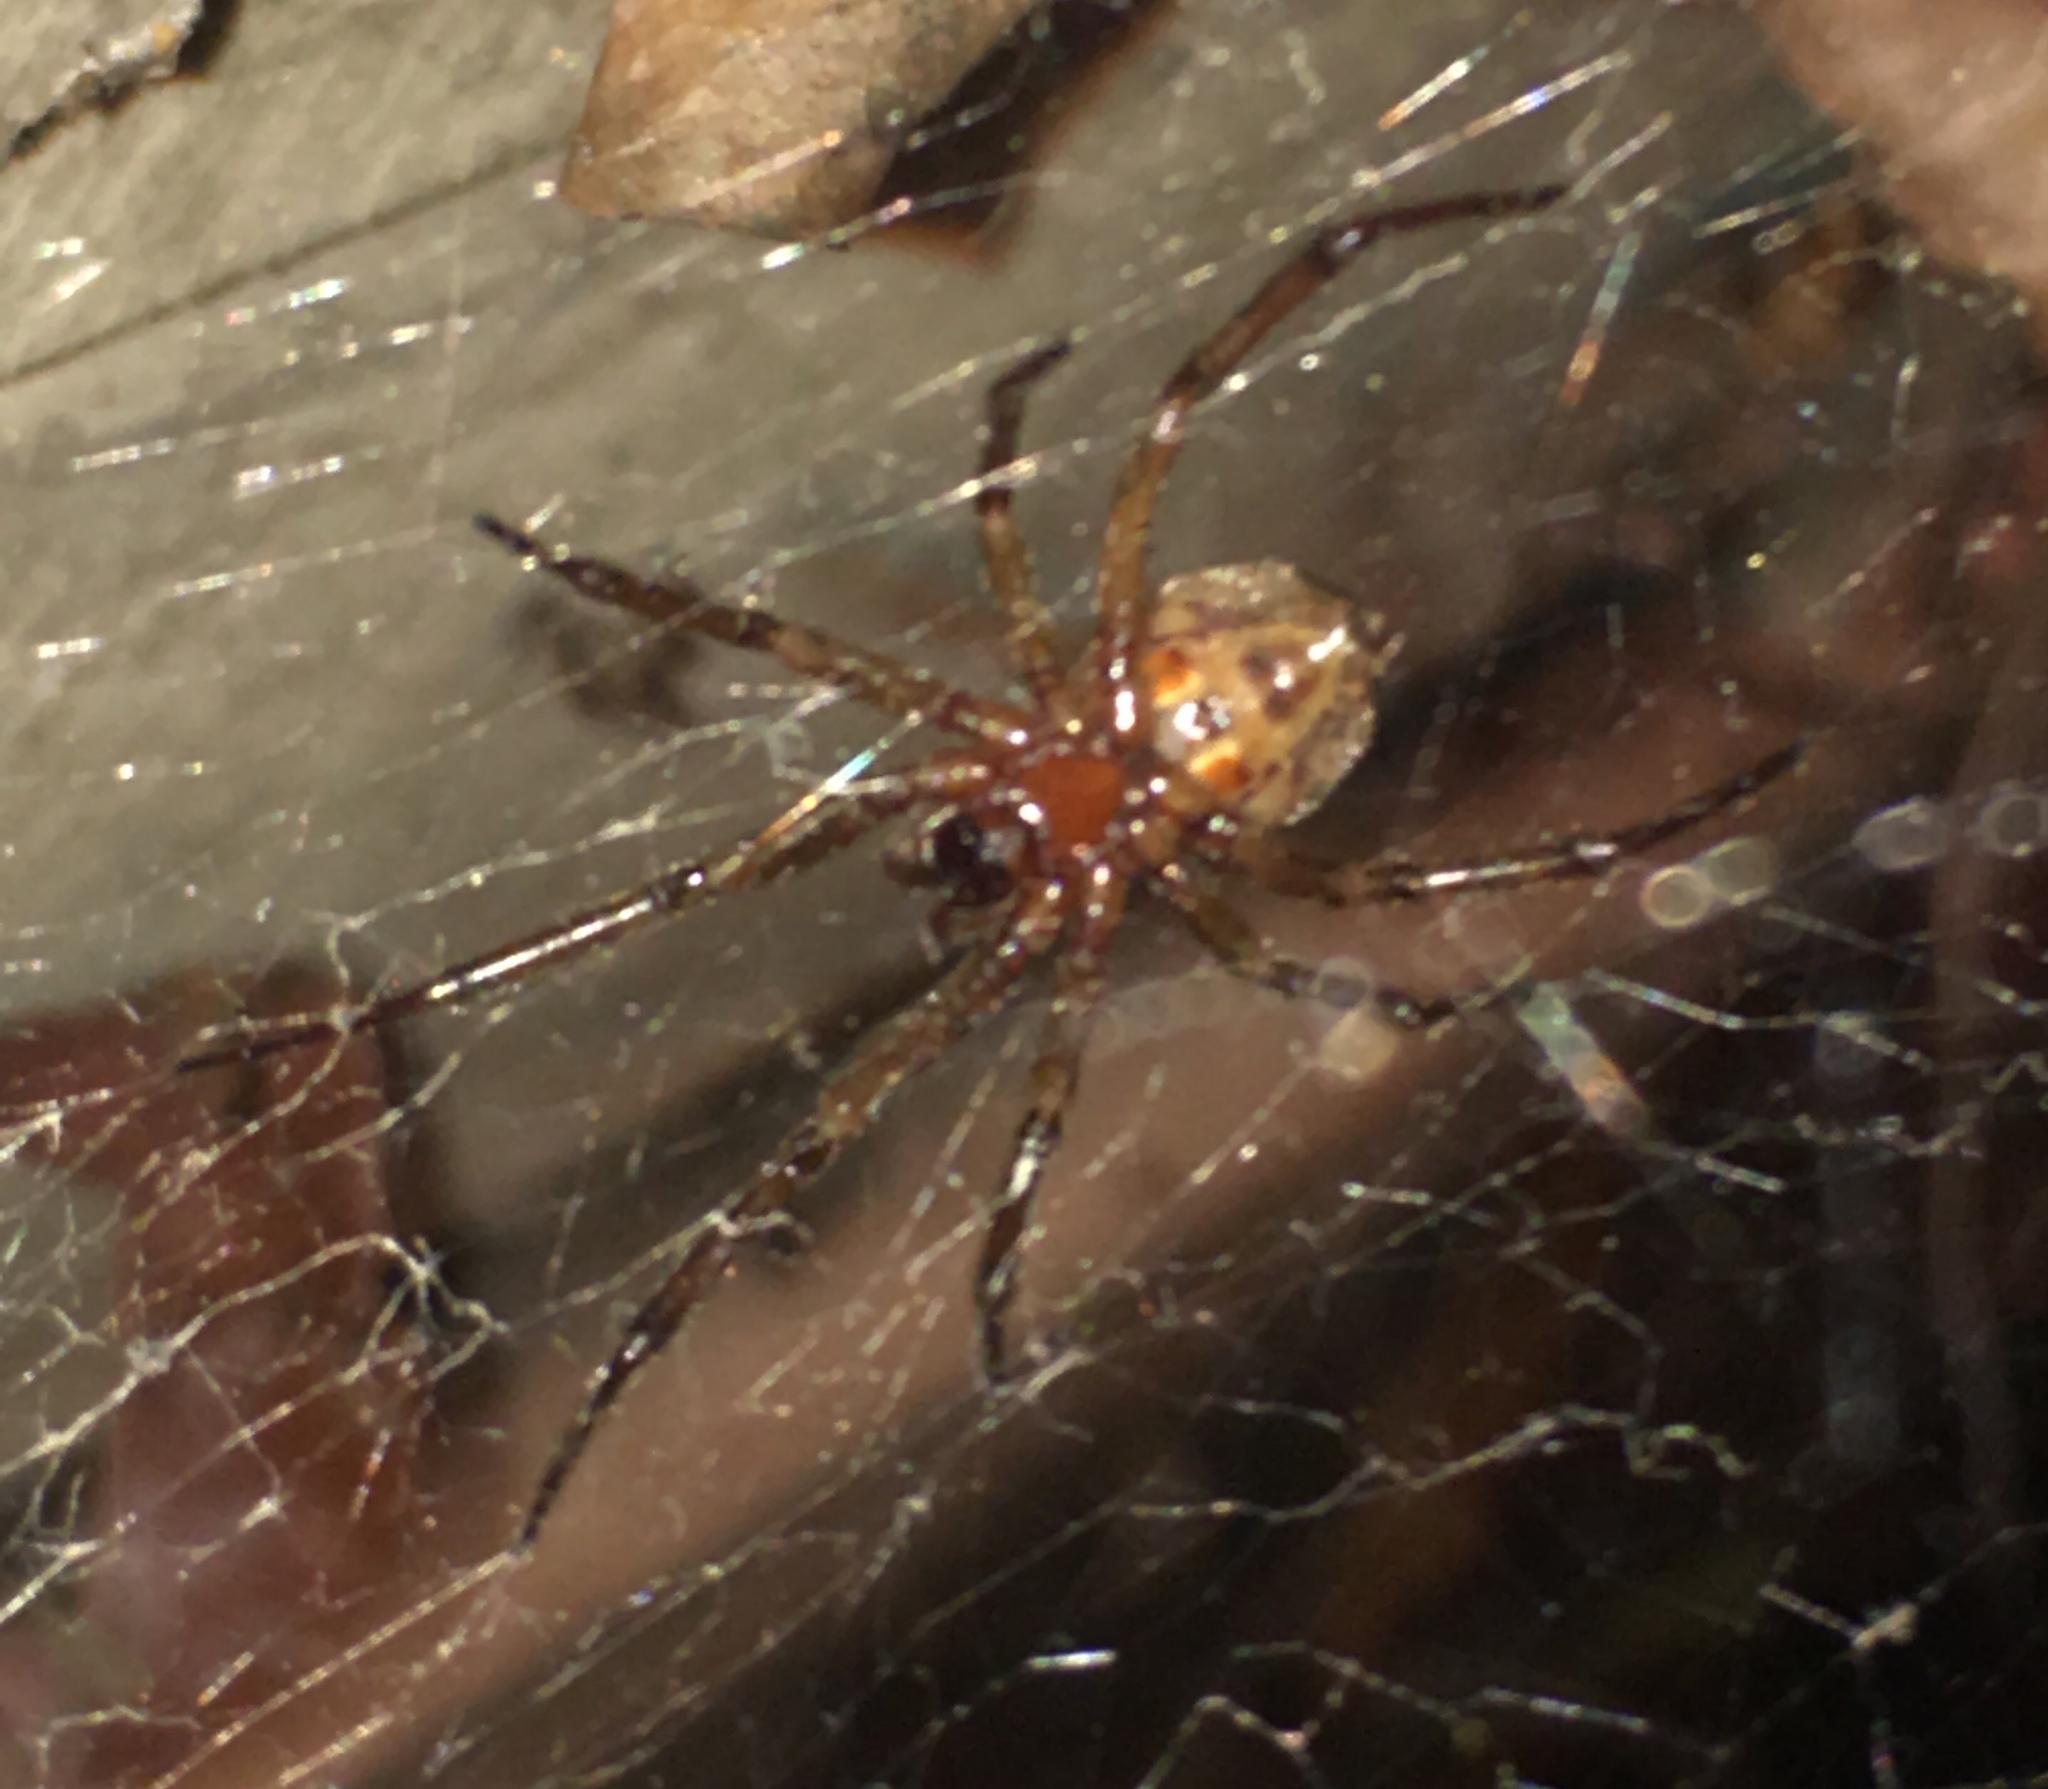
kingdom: Animalia
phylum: Arthropoda
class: Arachnida
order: Araneae
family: Theridiidae
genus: Steatoda
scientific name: Steatoda nobilis
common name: Cobweb weaver
